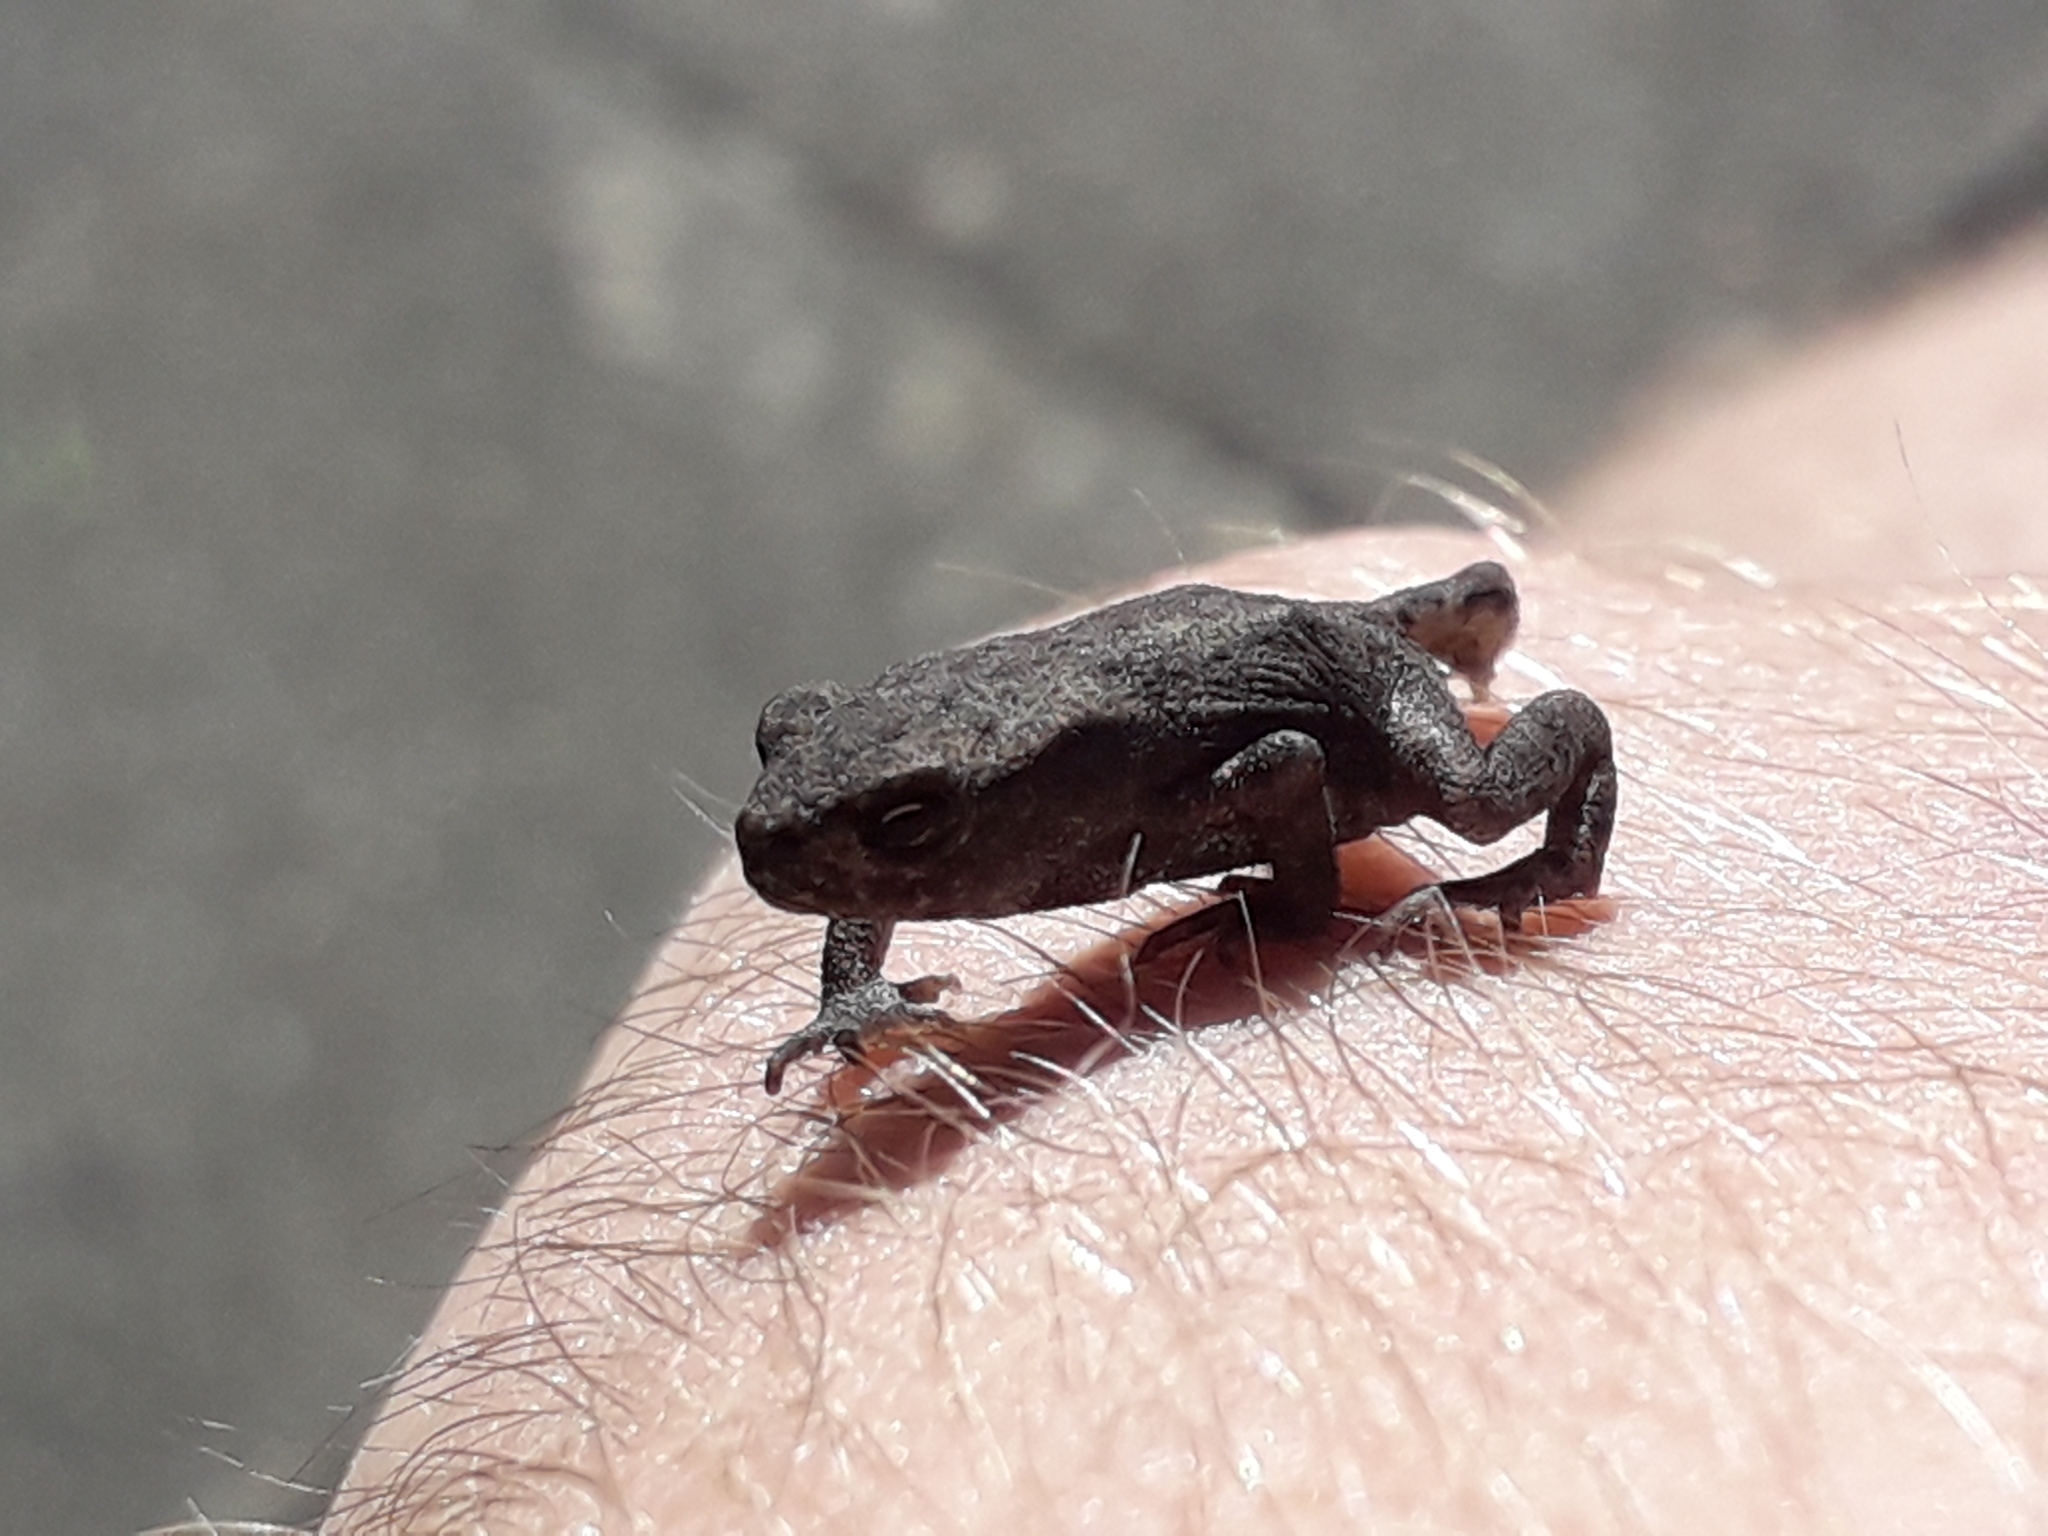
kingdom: Animalia
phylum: Chordata
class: Amphibia
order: Anura
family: Bufonidae
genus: Bufo
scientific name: Bufo bufo
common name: Common toad
